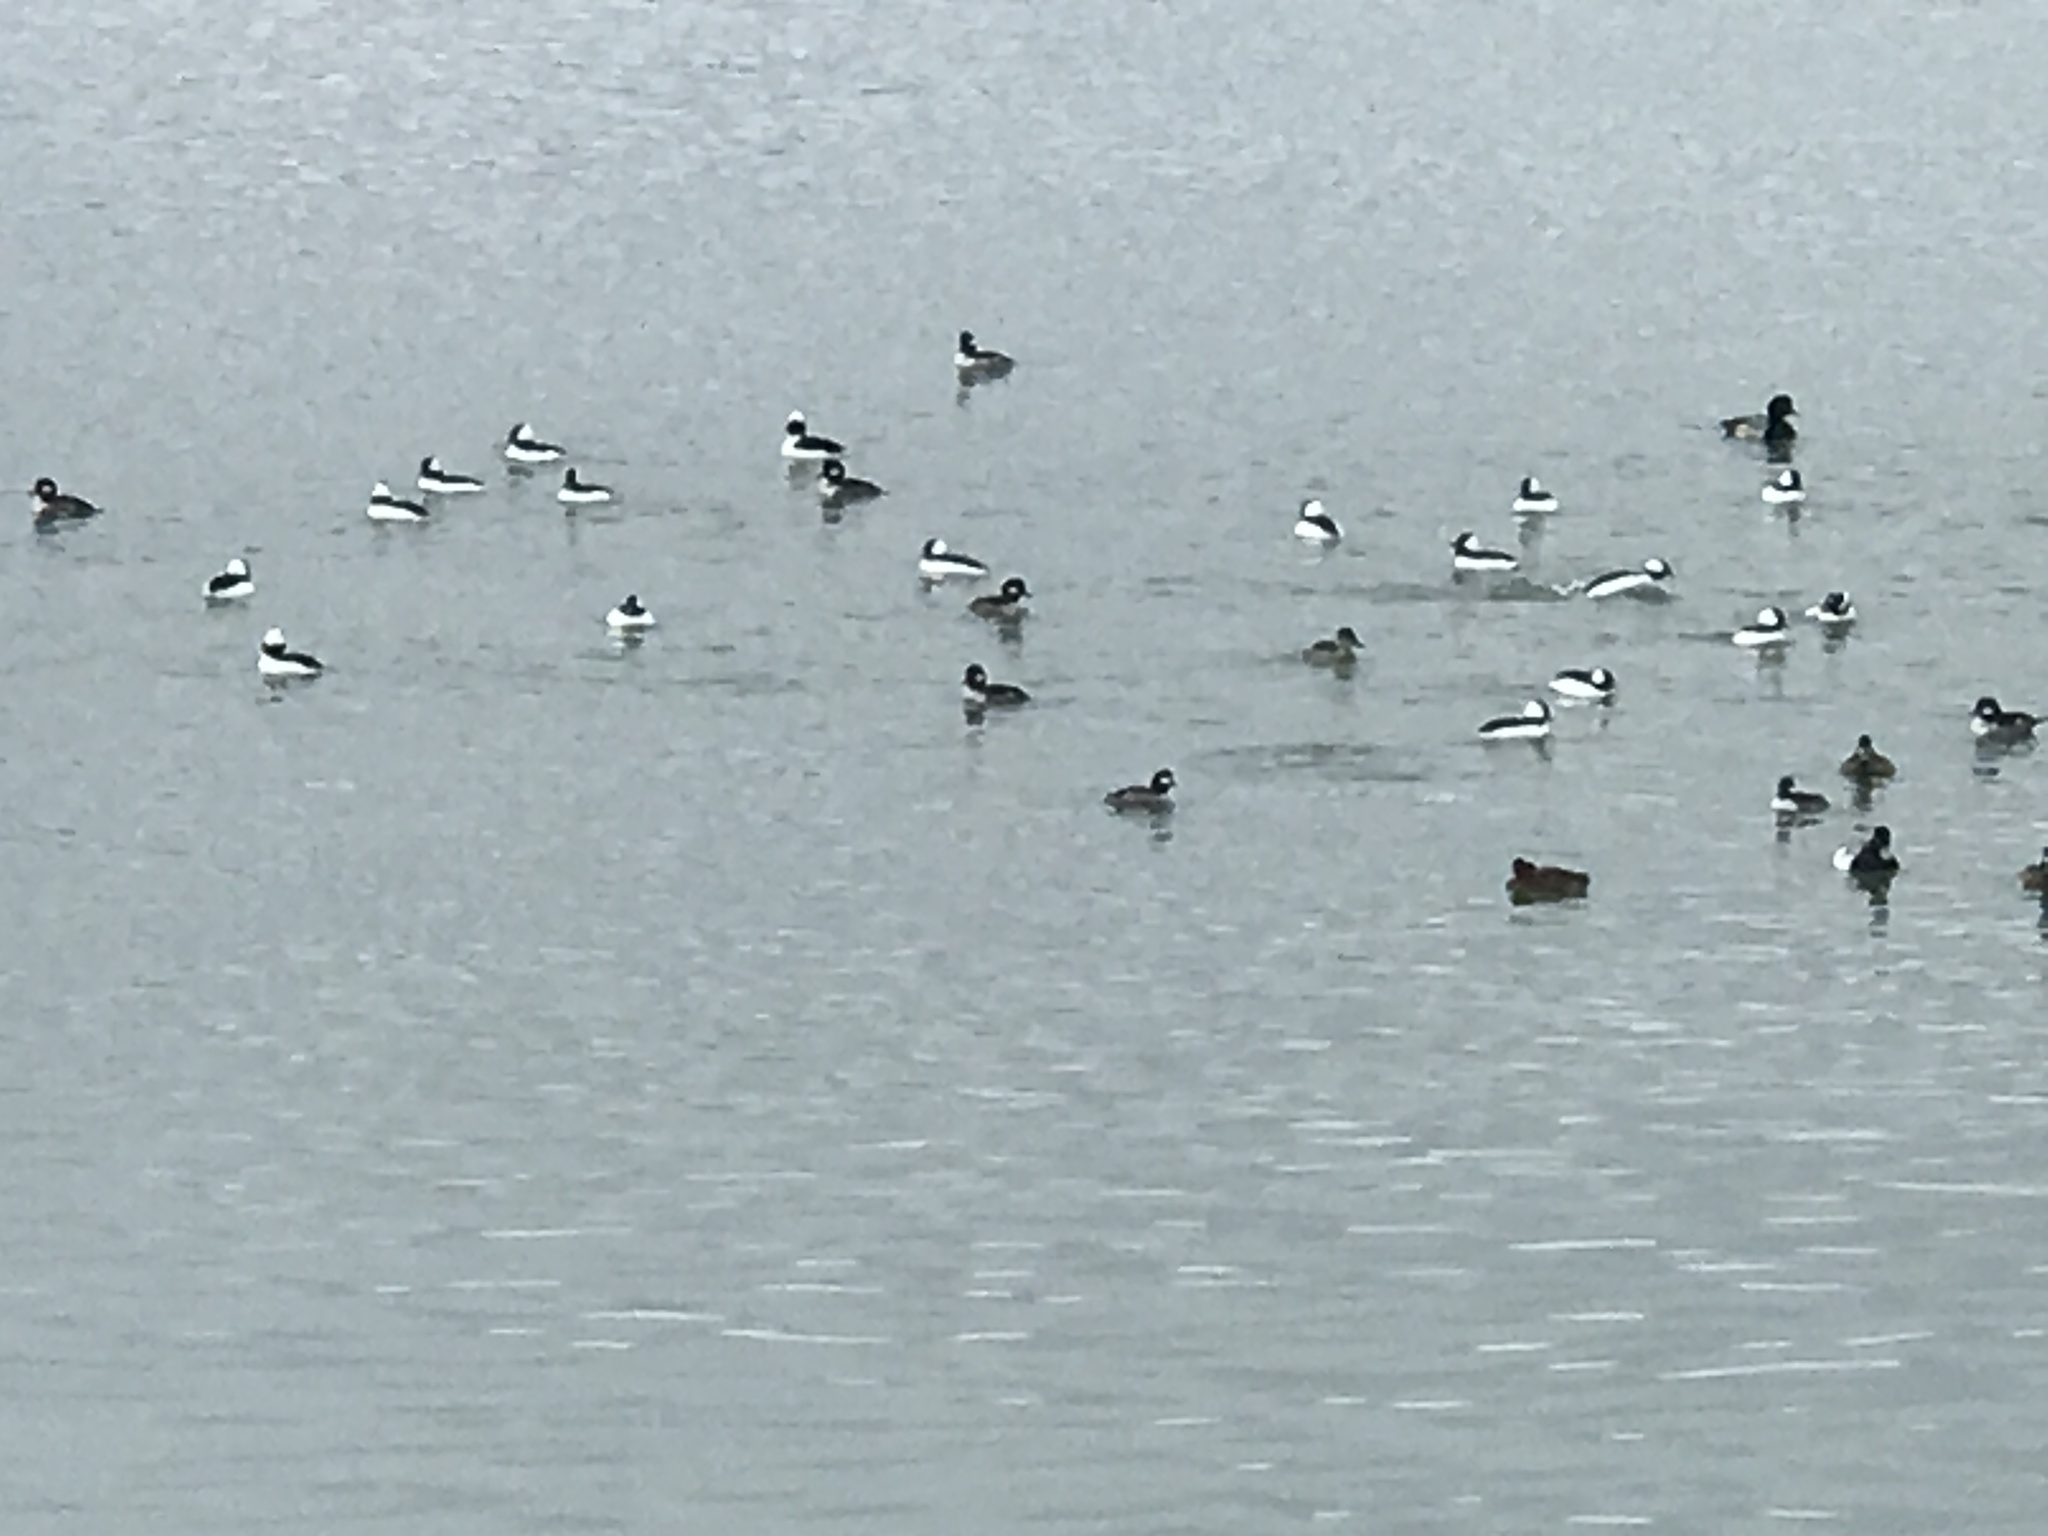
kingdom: Animalia
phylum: Chordata
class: Aves
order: Anseriformes
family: Anatidae
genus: Bucephala
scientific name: Bucephala albeola
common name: Bufflehead
